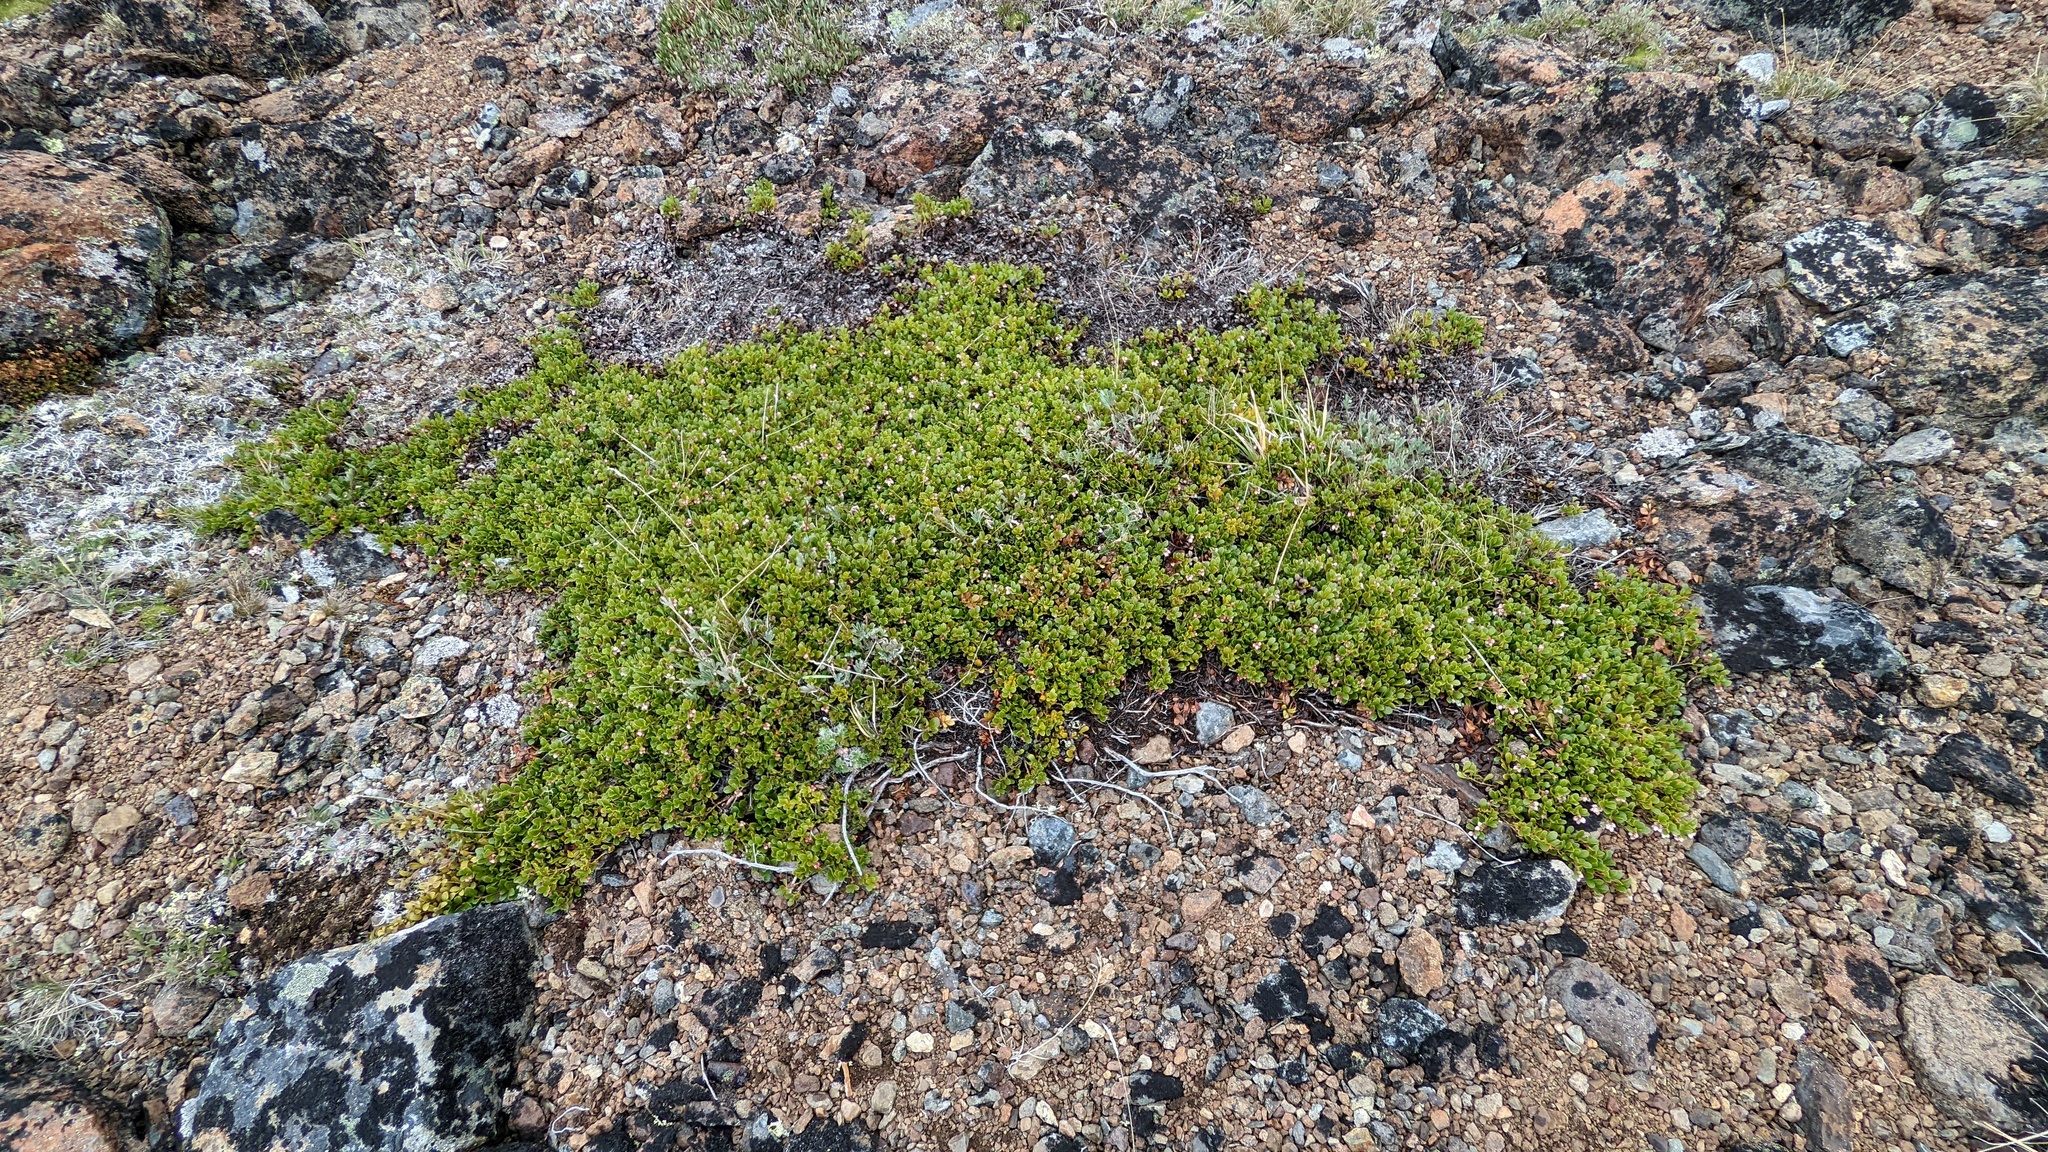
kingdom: Plantae
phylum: Tracheophyta
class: Magnoliopsida
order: Ericales
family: Ericaceae
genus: Arctostaphylos
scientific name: Arctostaphylos uva-ursi
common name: Bearberry
